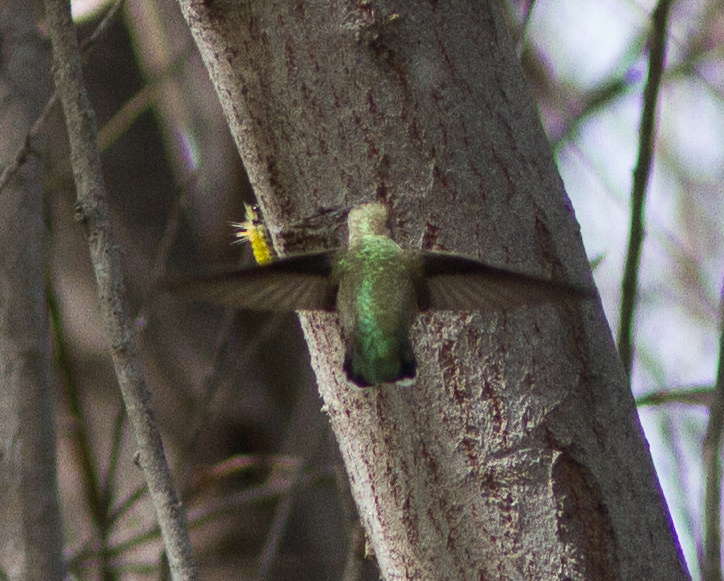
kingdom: Animalia
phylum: Chordata
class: Aves
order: Apodiformes
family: Trochilidae
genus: Calypte
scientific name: Calypte anna
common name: Anna's hummingbird
